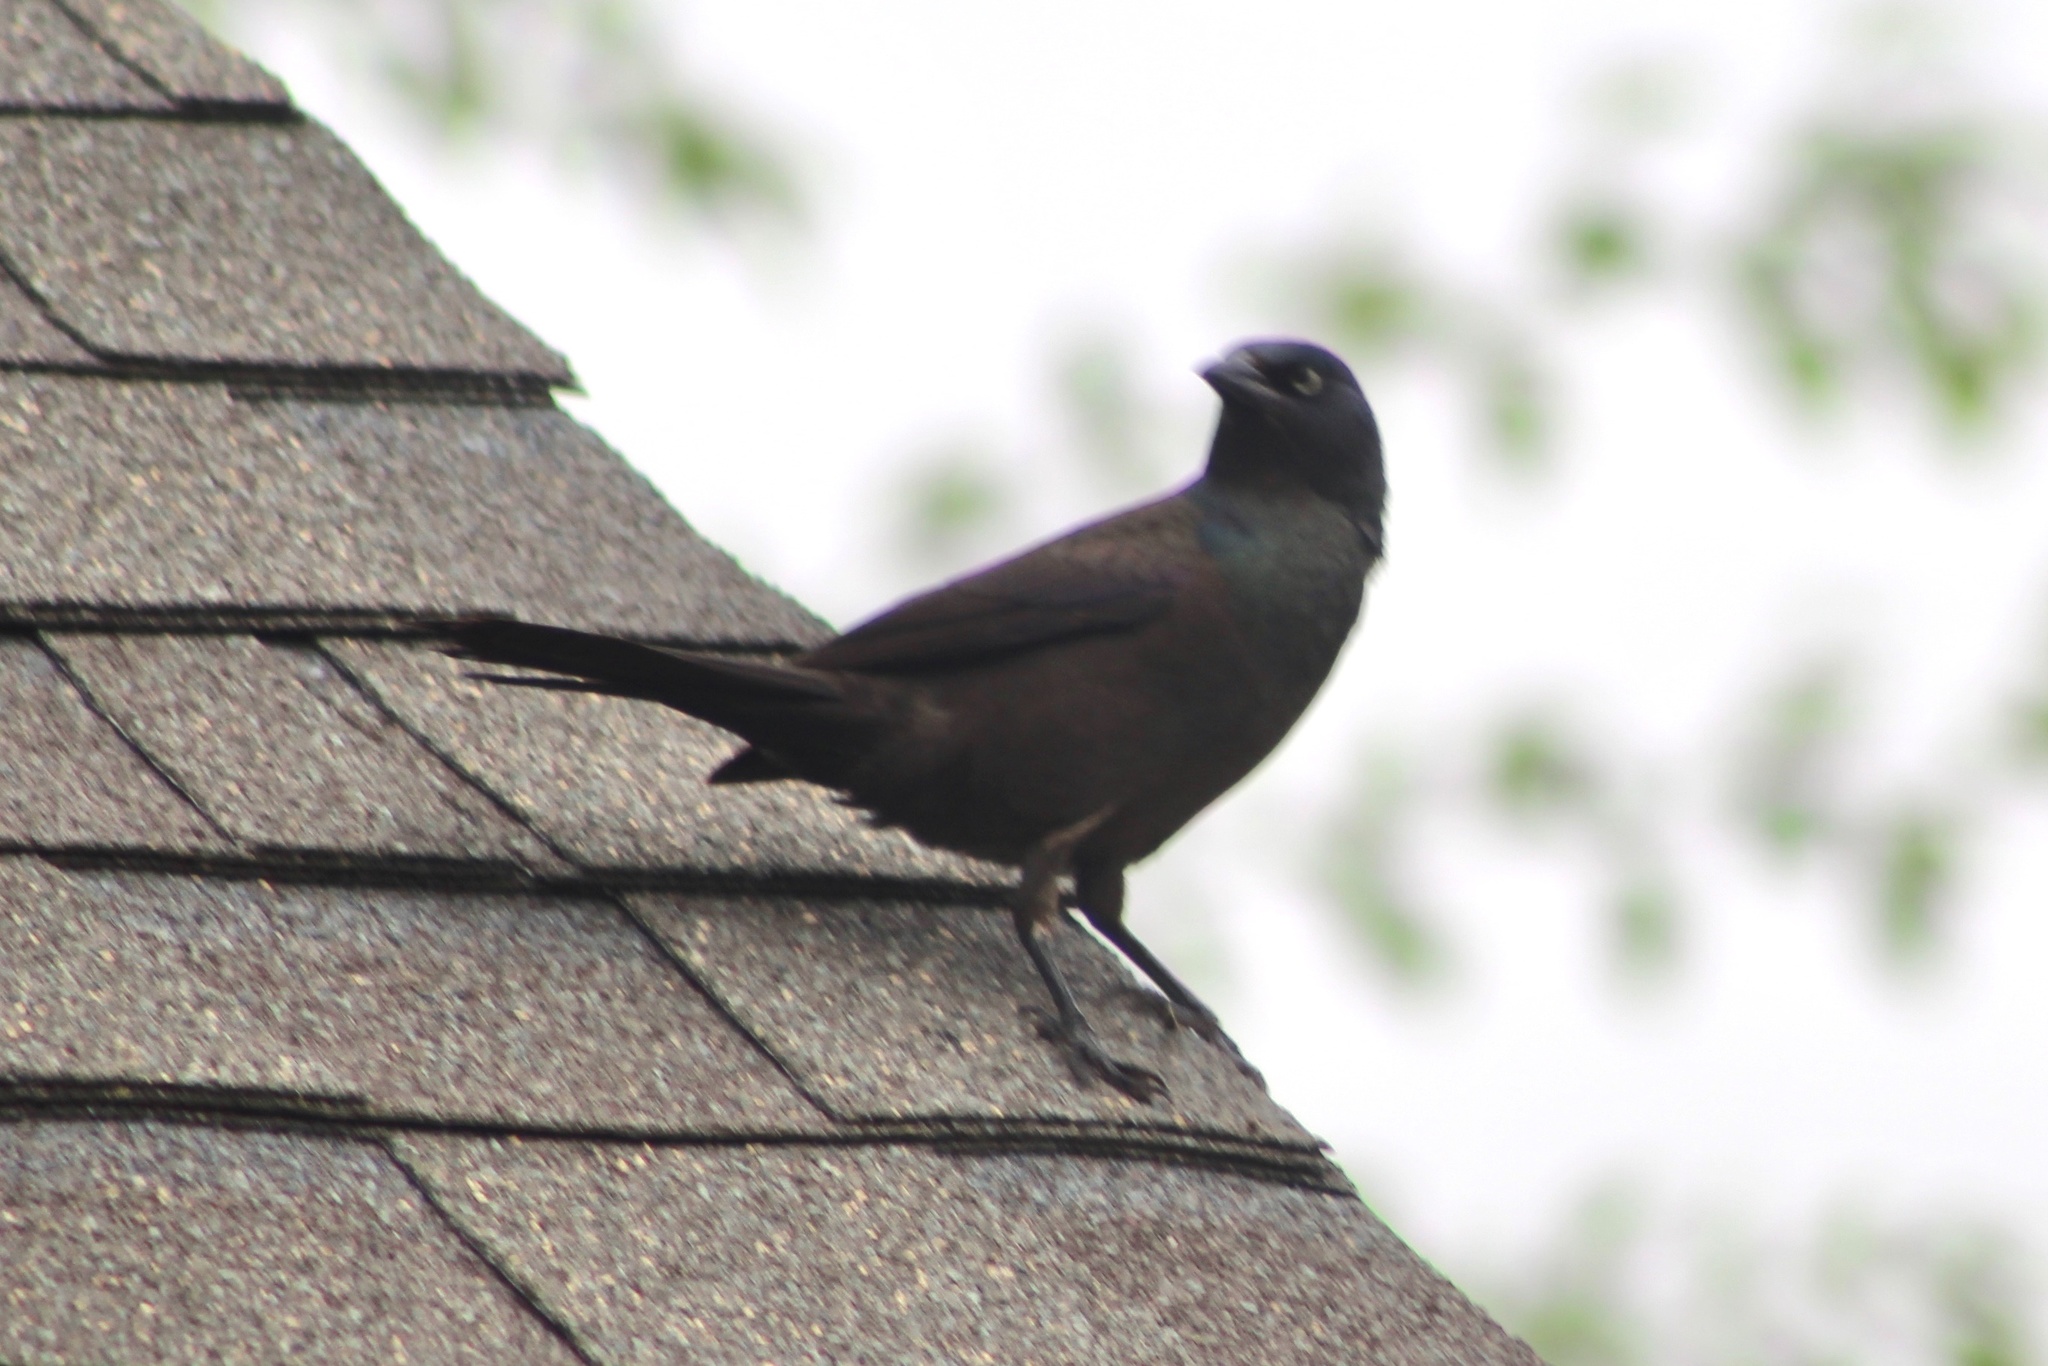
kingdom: Animalia
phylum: Chordata
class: Aves
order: Passeriformes
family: Icteridae
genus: Quiscalus
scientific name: Quiscalus quiscula
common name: Common grackle
